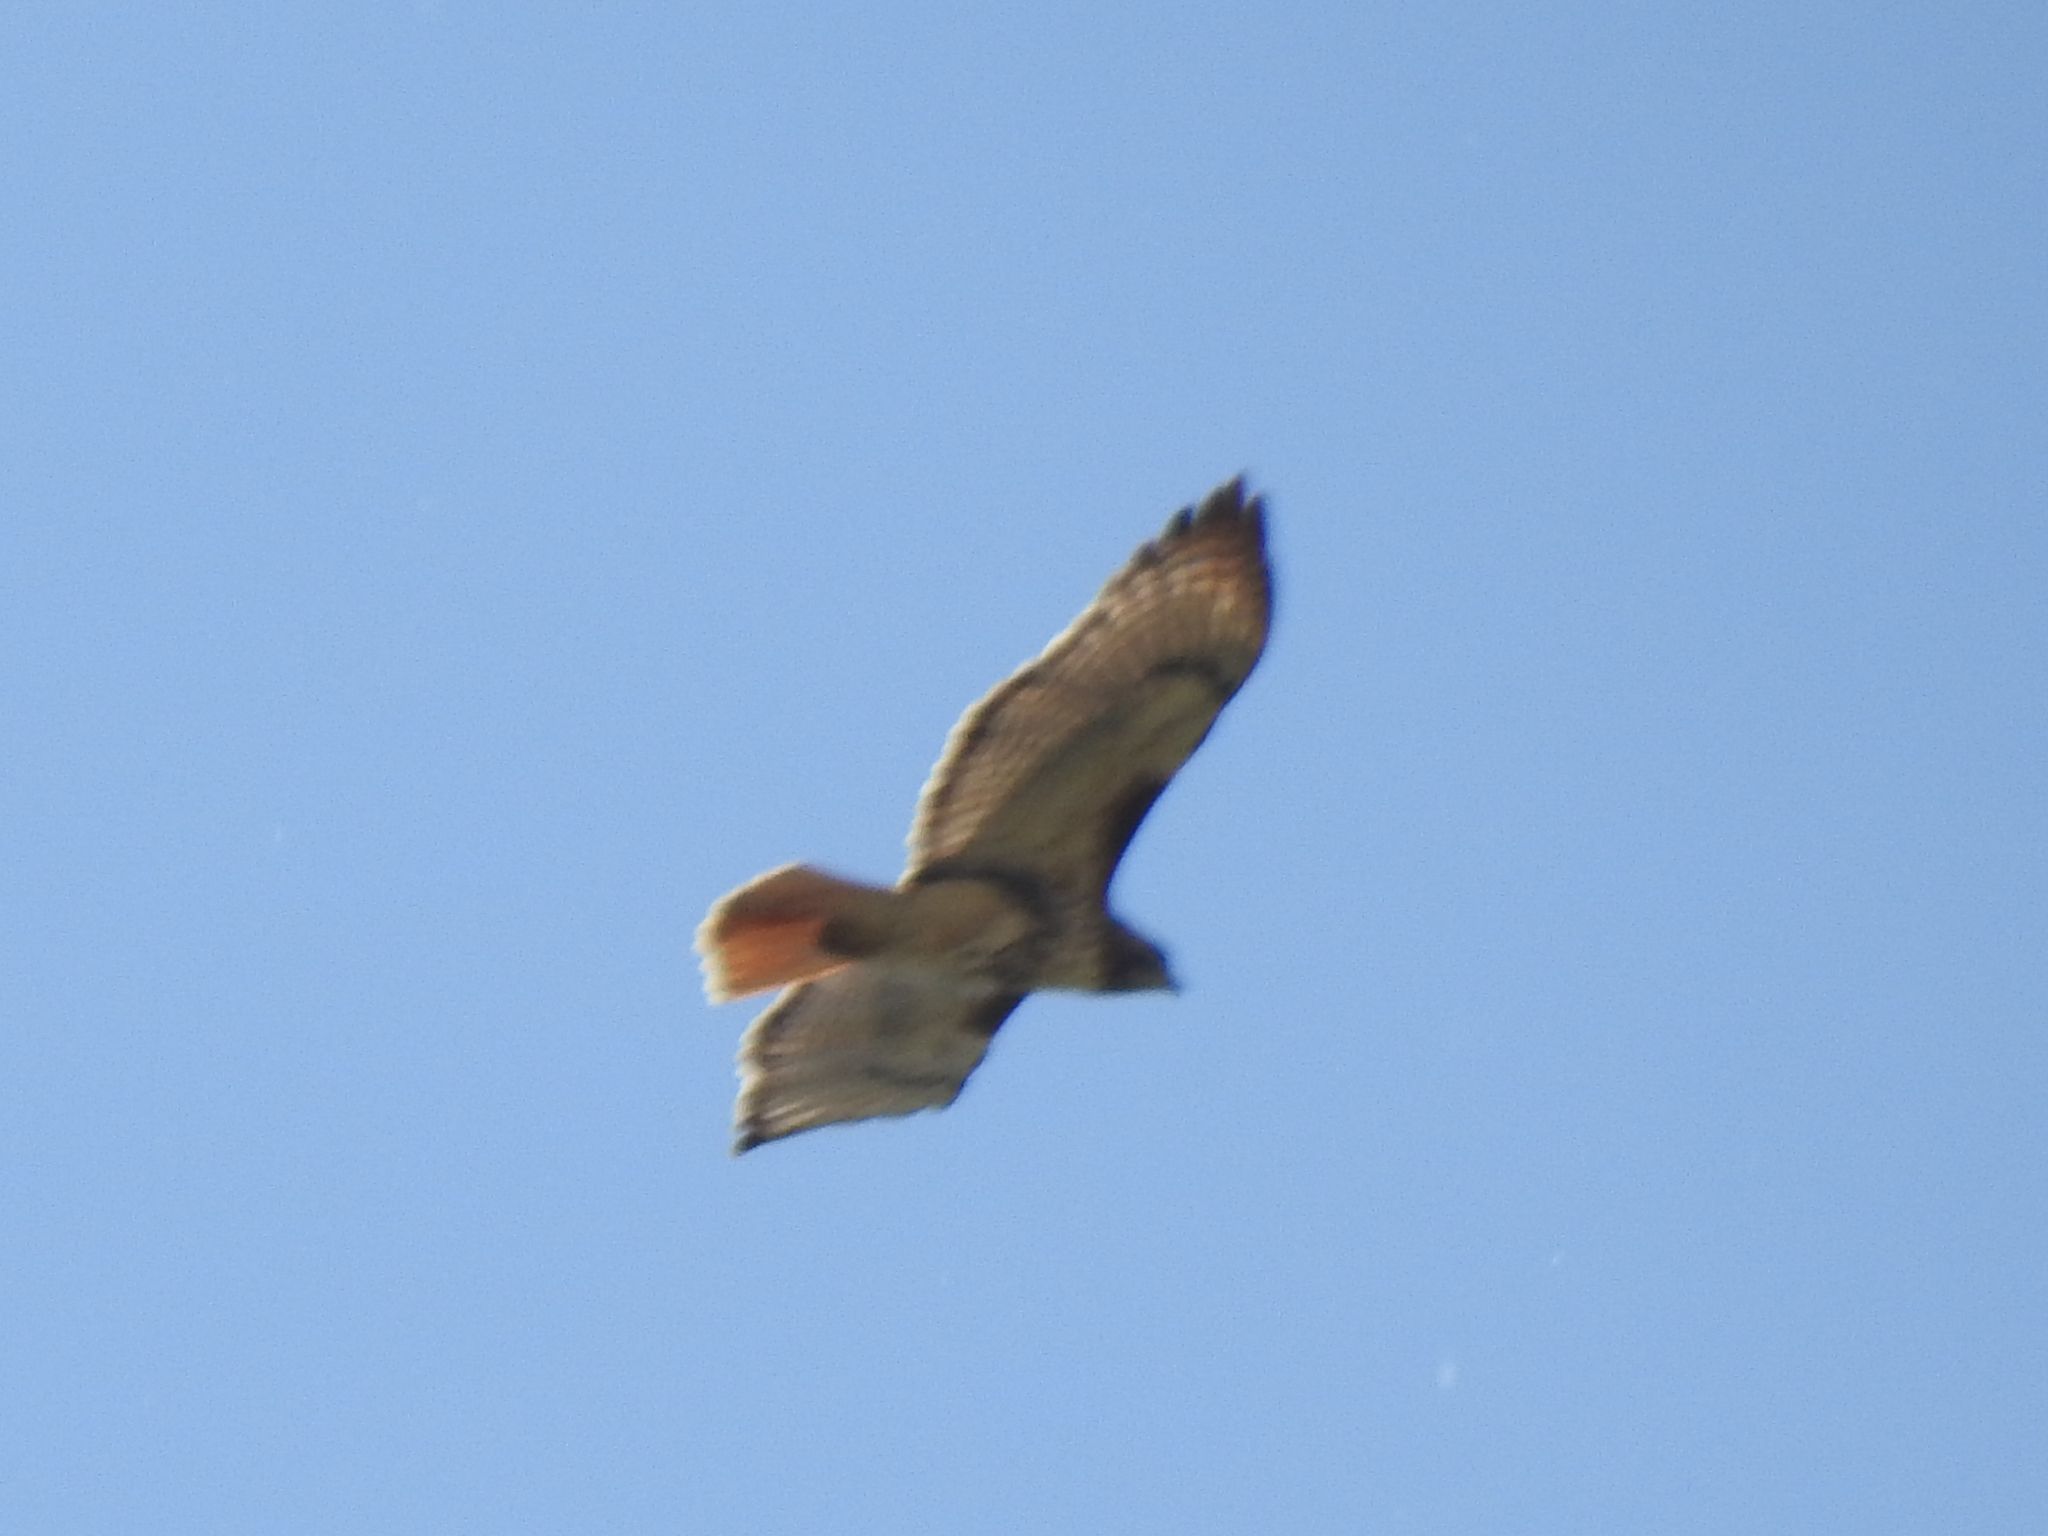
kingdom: Animalia
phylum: Chordata
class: Aves
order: Accipitriformes
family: Accipitridae
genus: Buteo
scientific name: Buteo jamaicensis
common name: Red-tailed hawk
